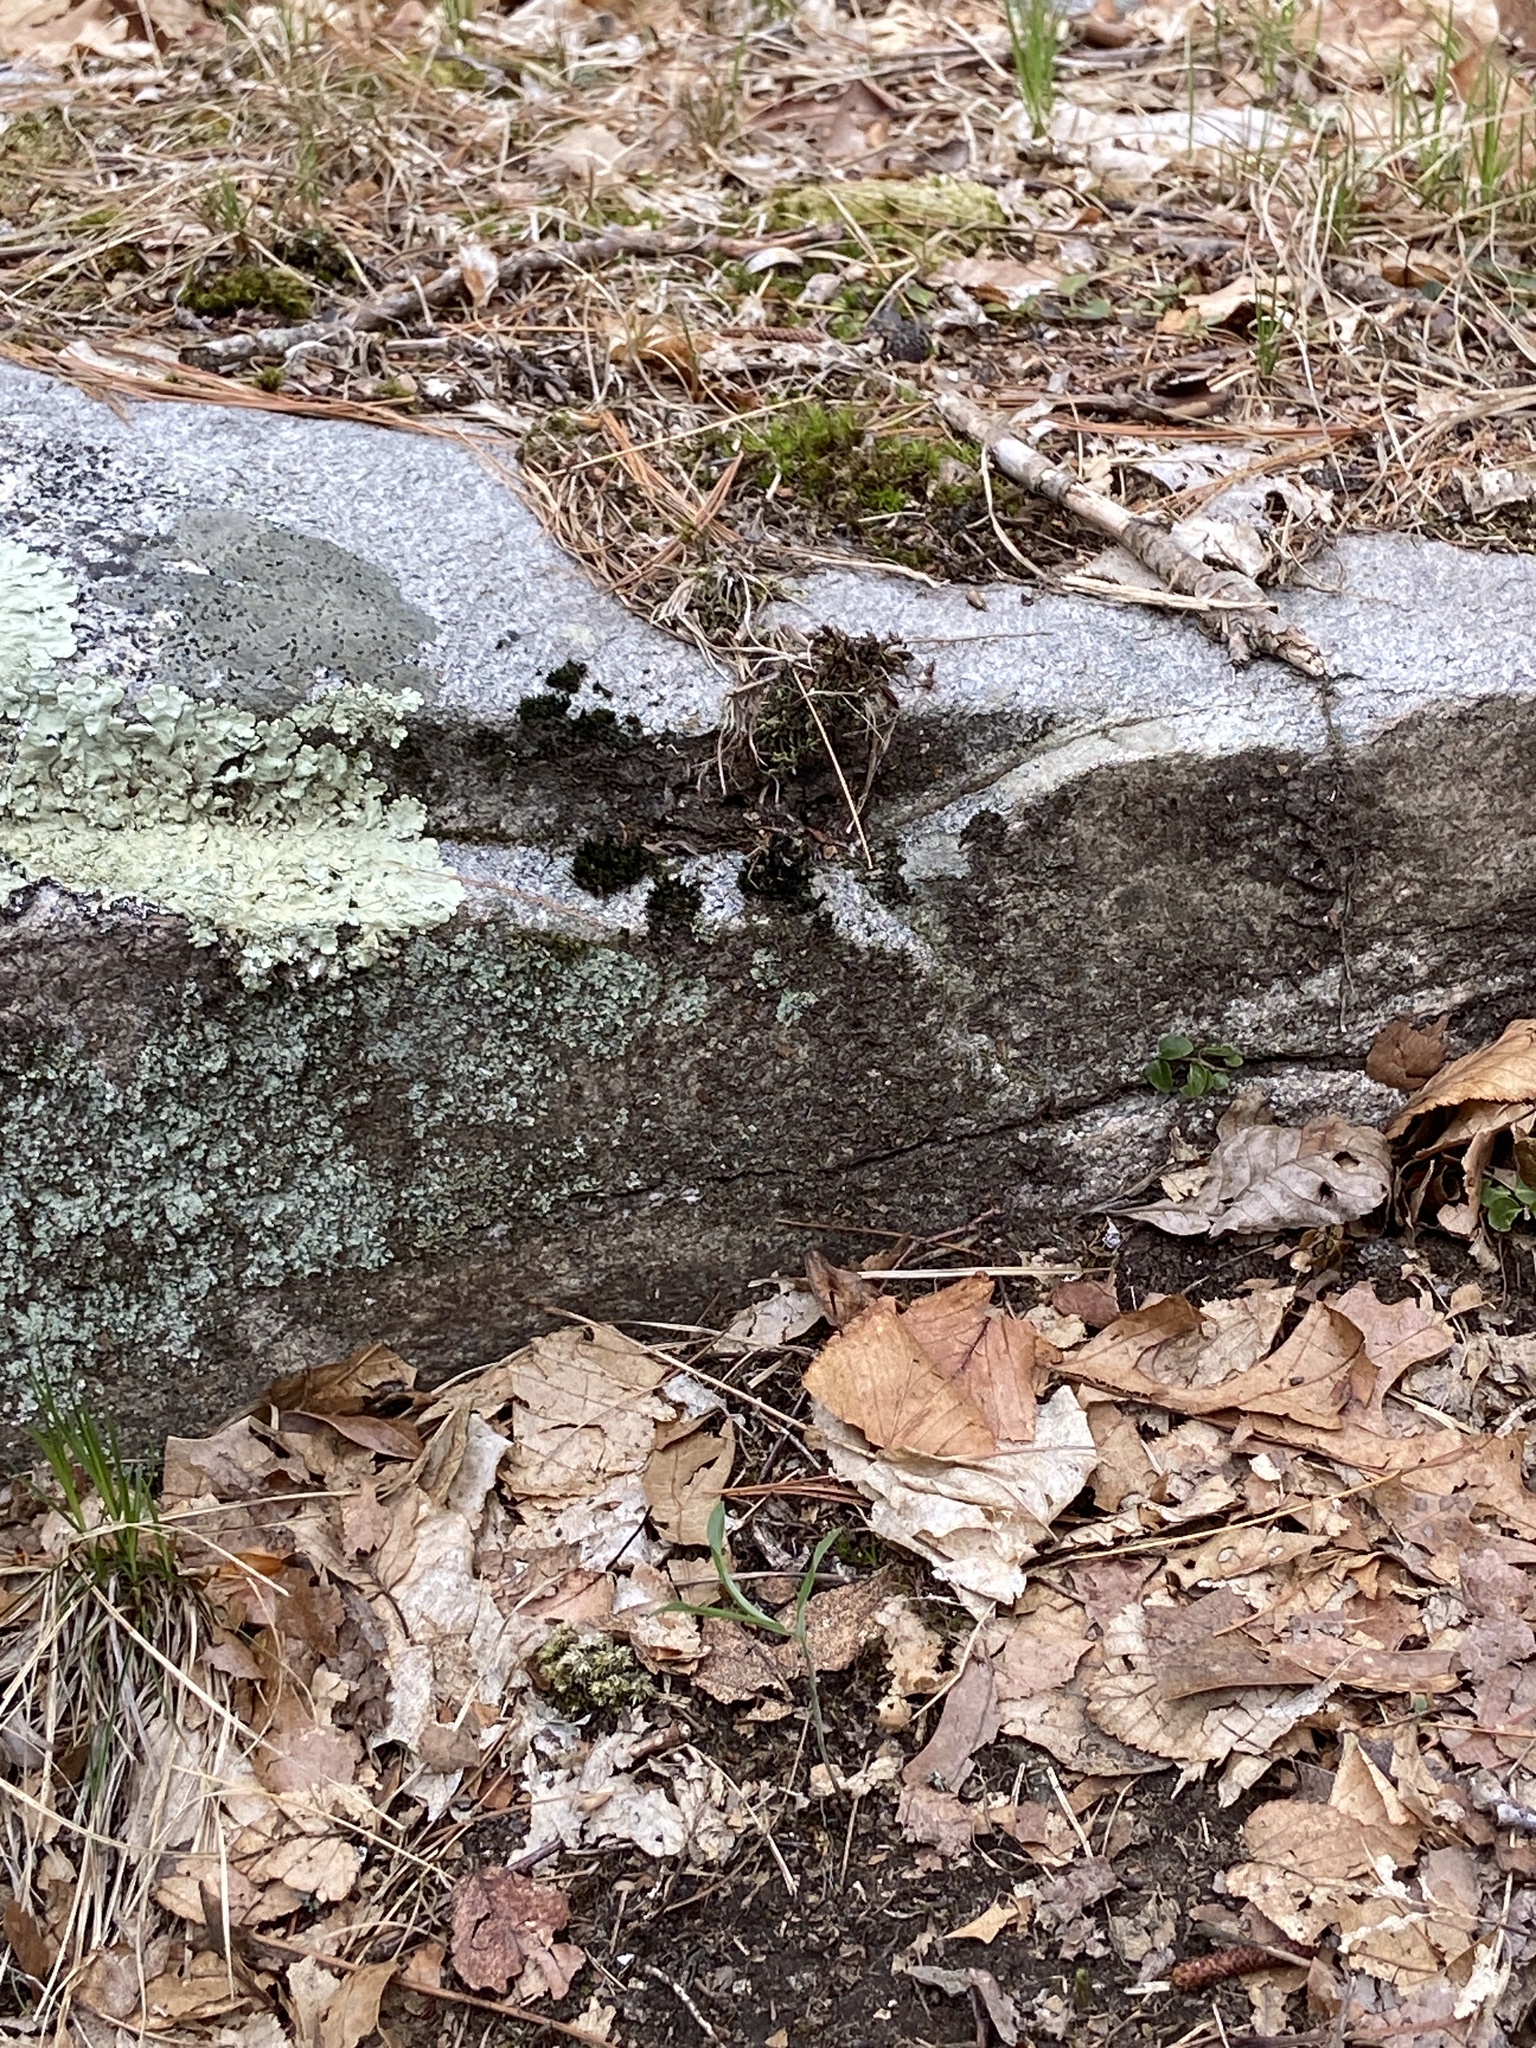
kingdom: Plantae
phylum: Tracheophyta
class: Liliopsida
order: Asparagales
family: Asparagaceae
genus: Polygonatum
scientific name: Polygonatum pubescens
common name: Downy solomon's seal
